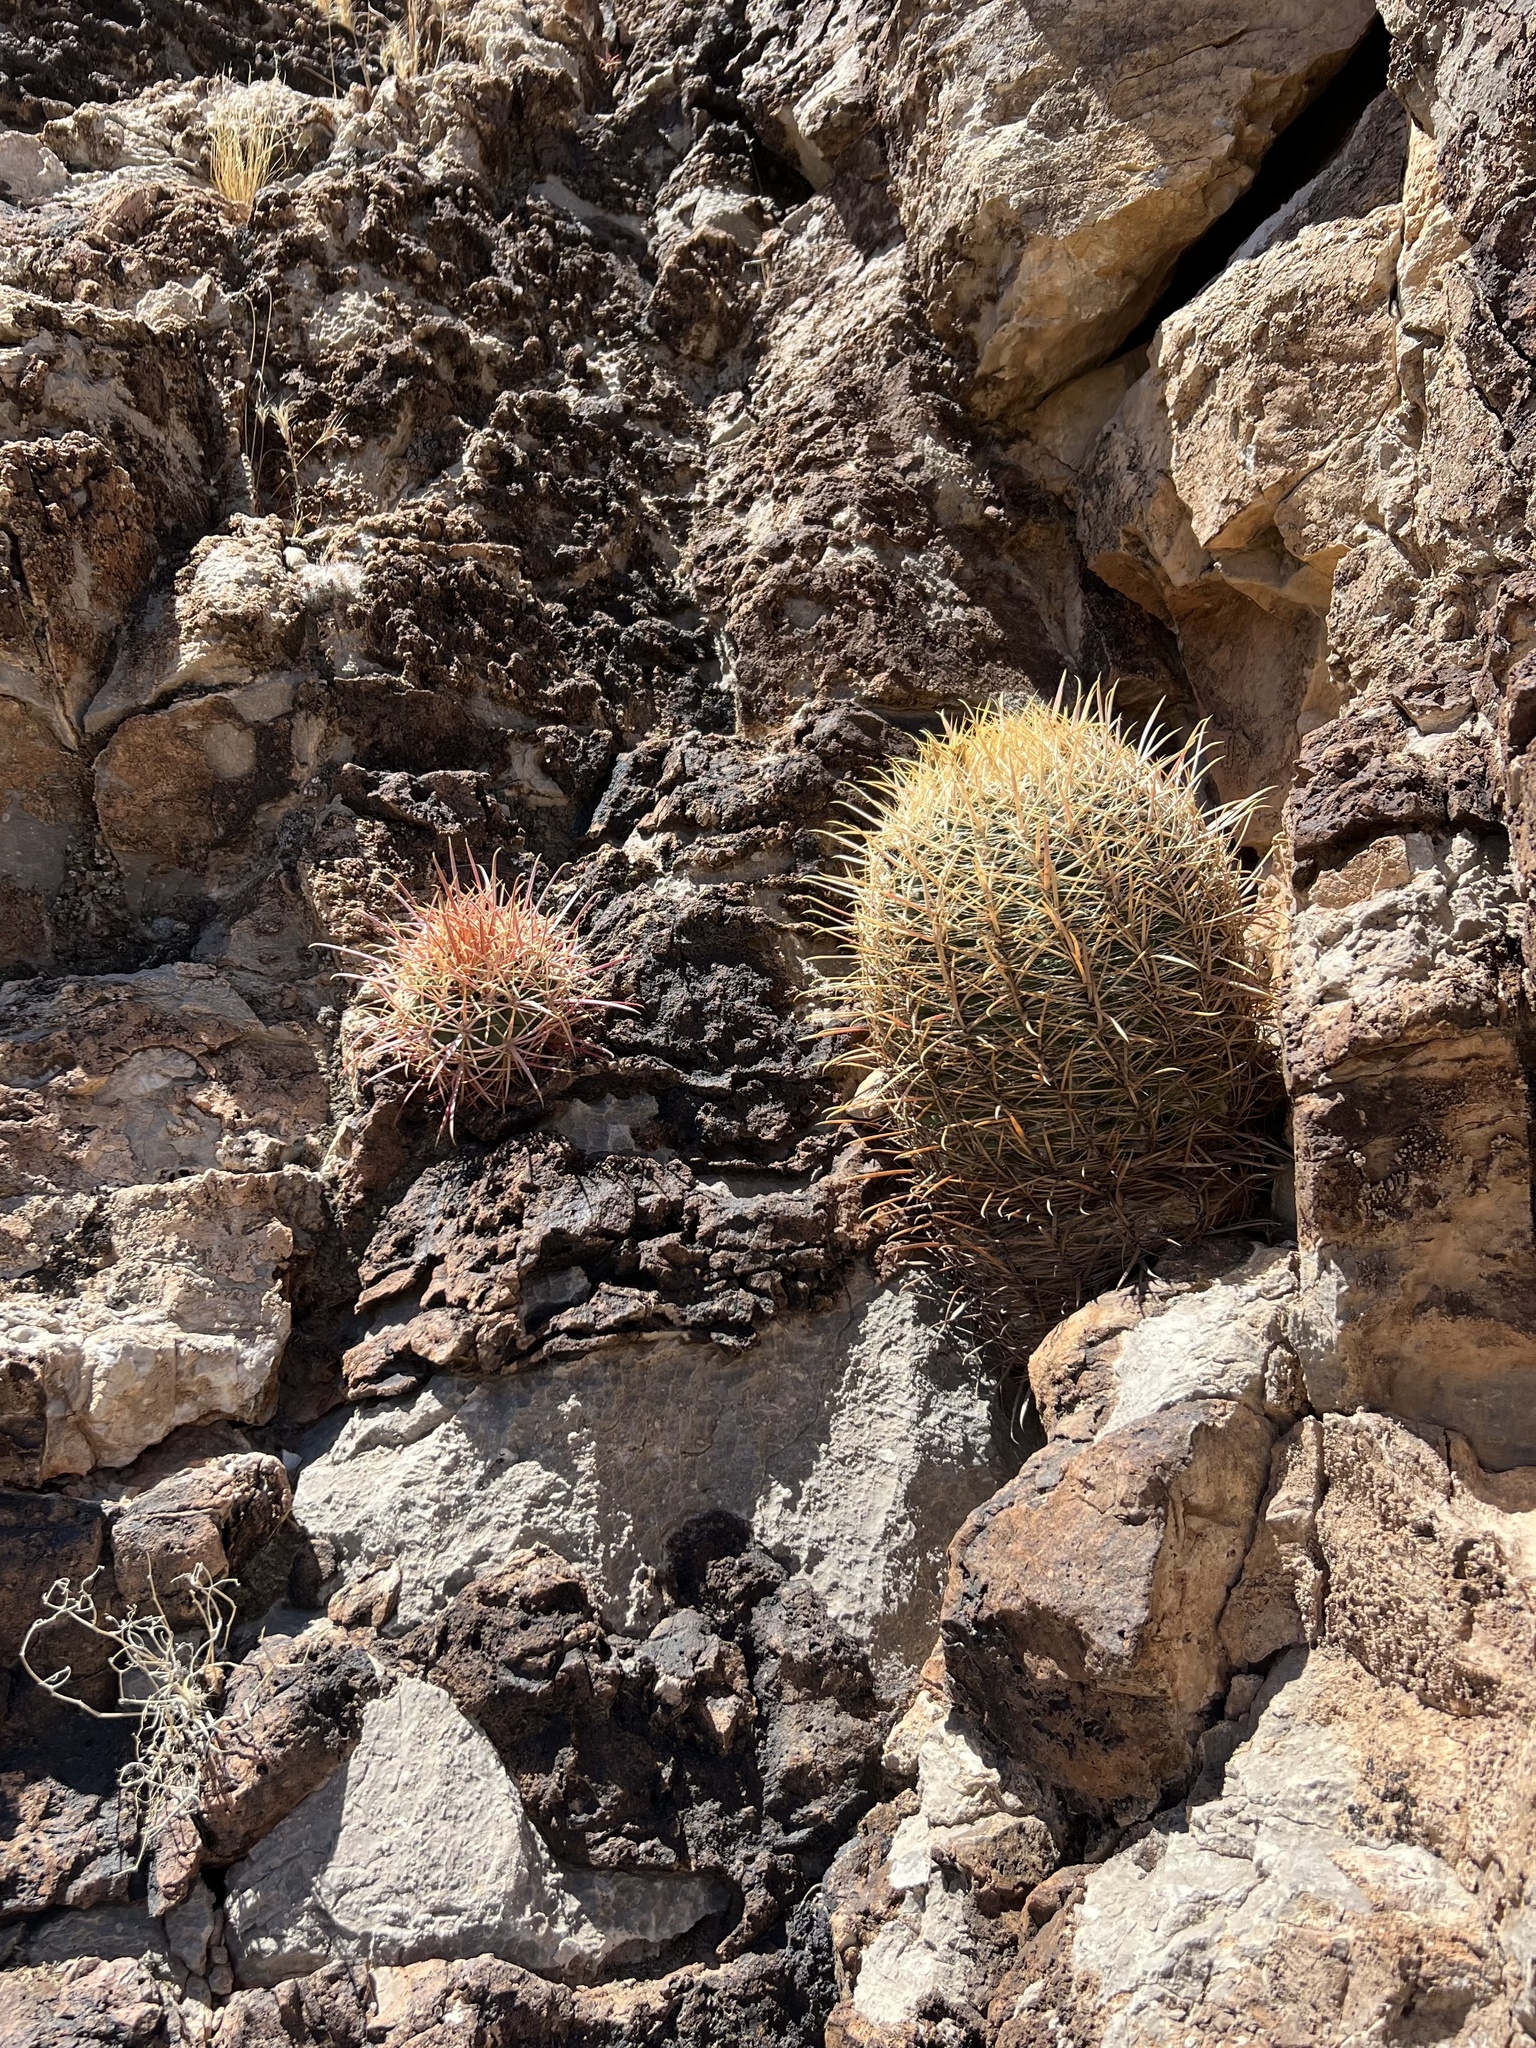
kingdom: Plantae
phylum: Tracheophyta
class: Magnoliopsida
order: Caryophyllales
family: Cactaceae
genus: Ferocactus
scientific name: Ferocactus cylindraceus
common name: California barrel cactus
